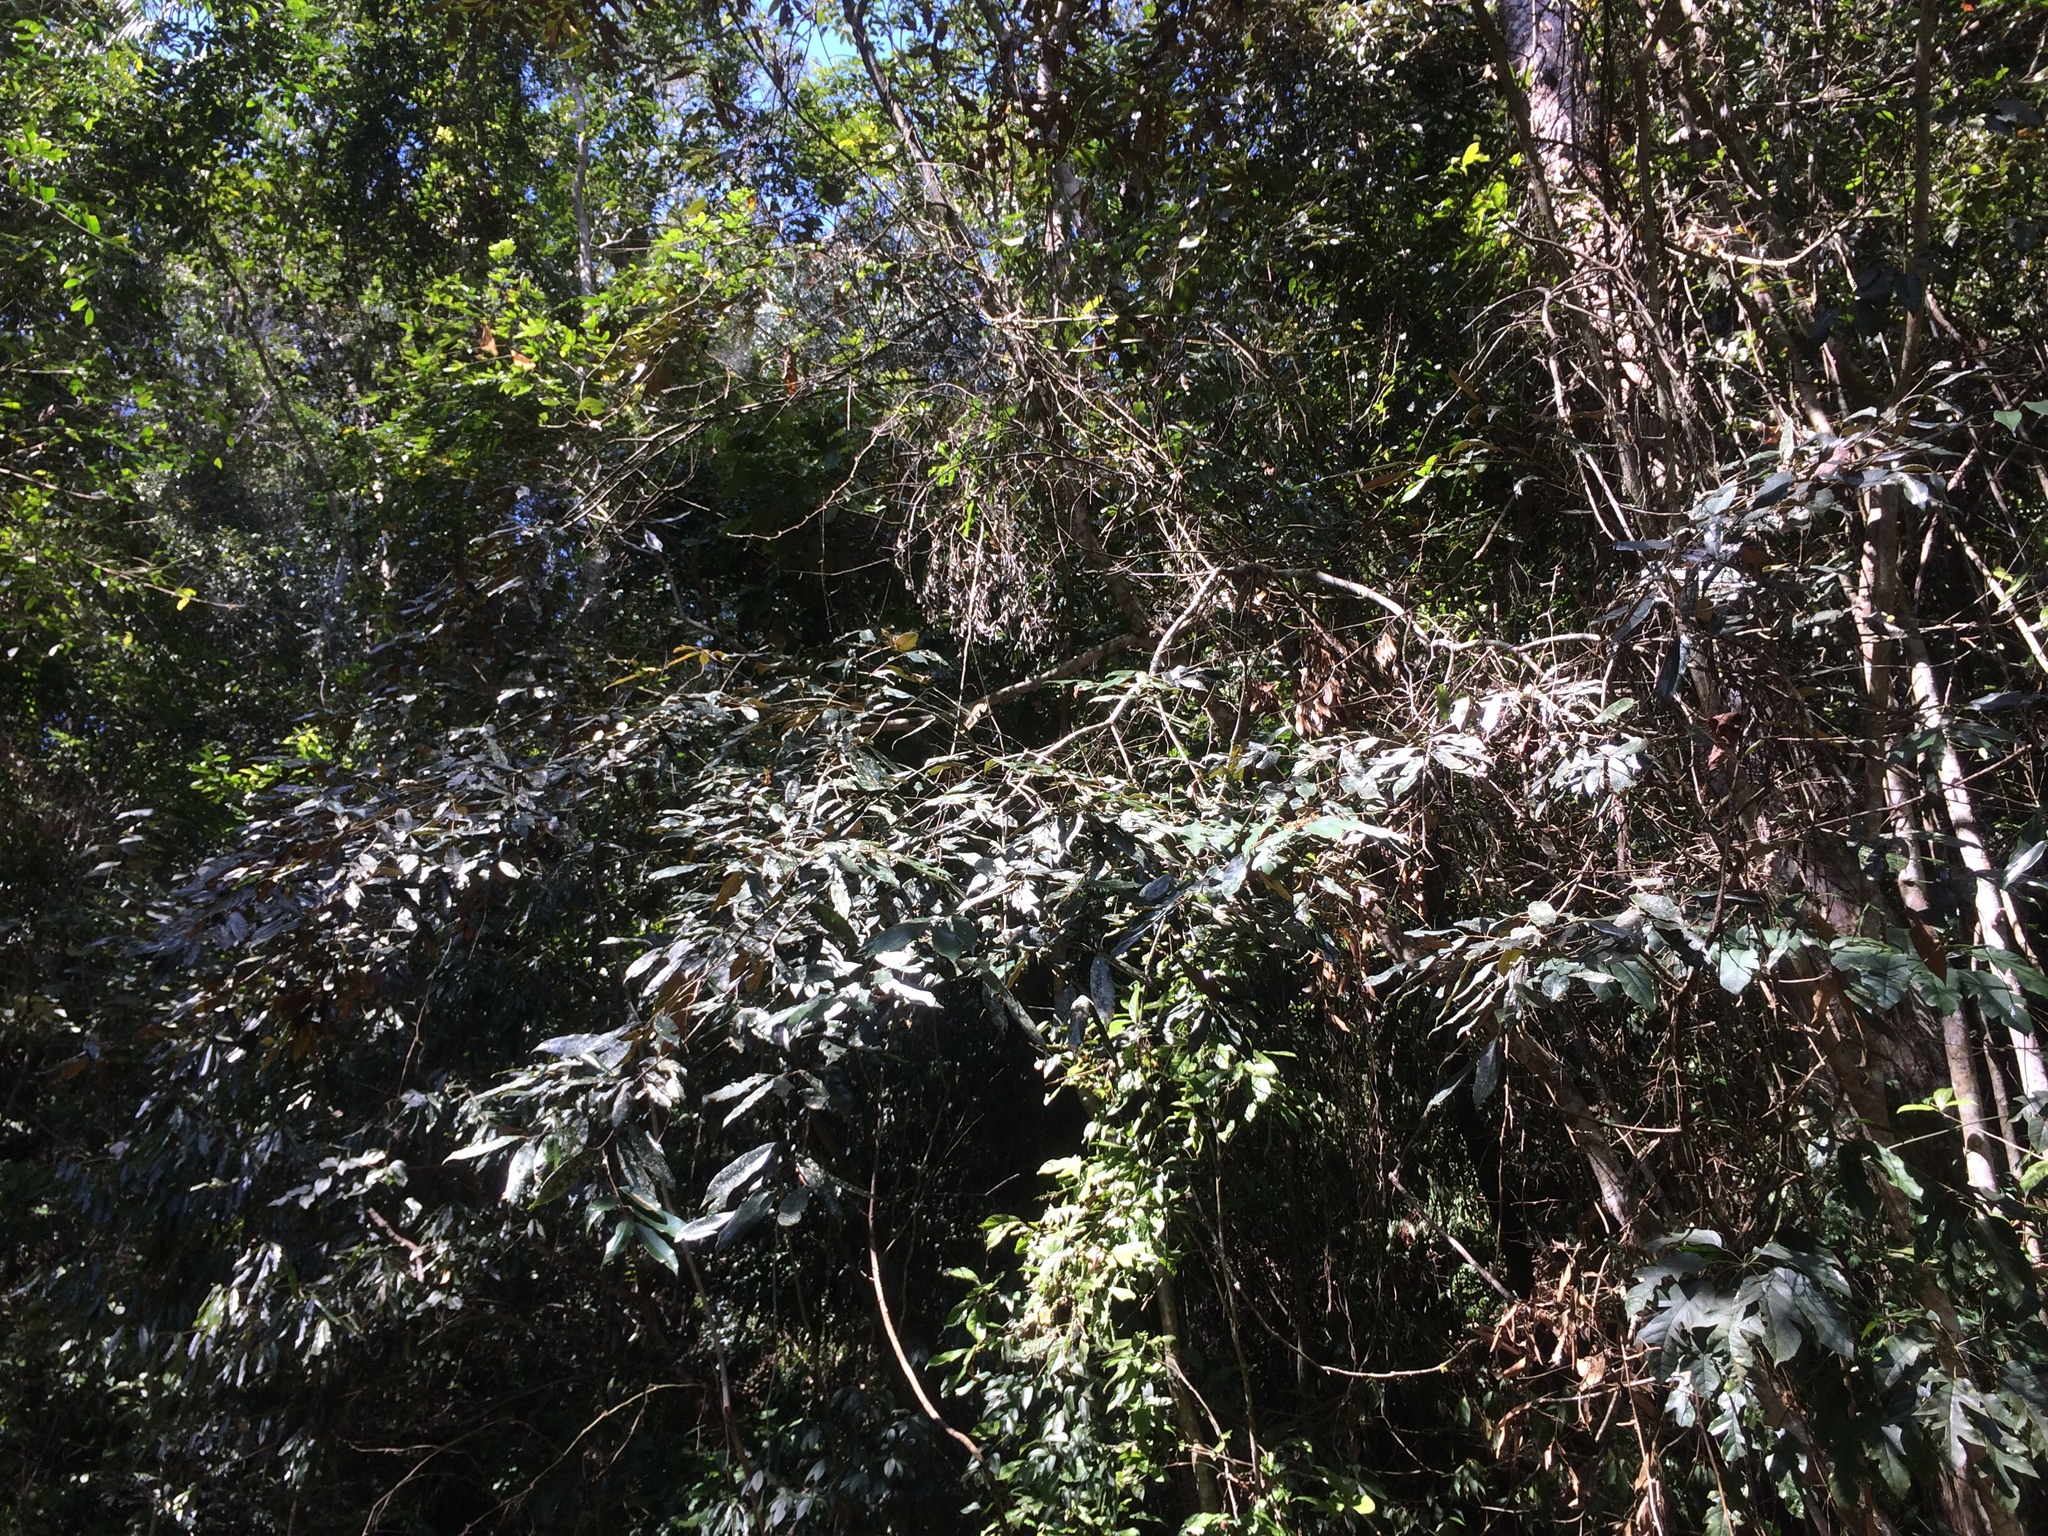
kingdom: Plantae
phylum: Tracheophyta
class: Magnoliopsida
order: Fagales
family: Fagaceae
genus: Castanopsis
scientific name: Castanopsis fargesii
